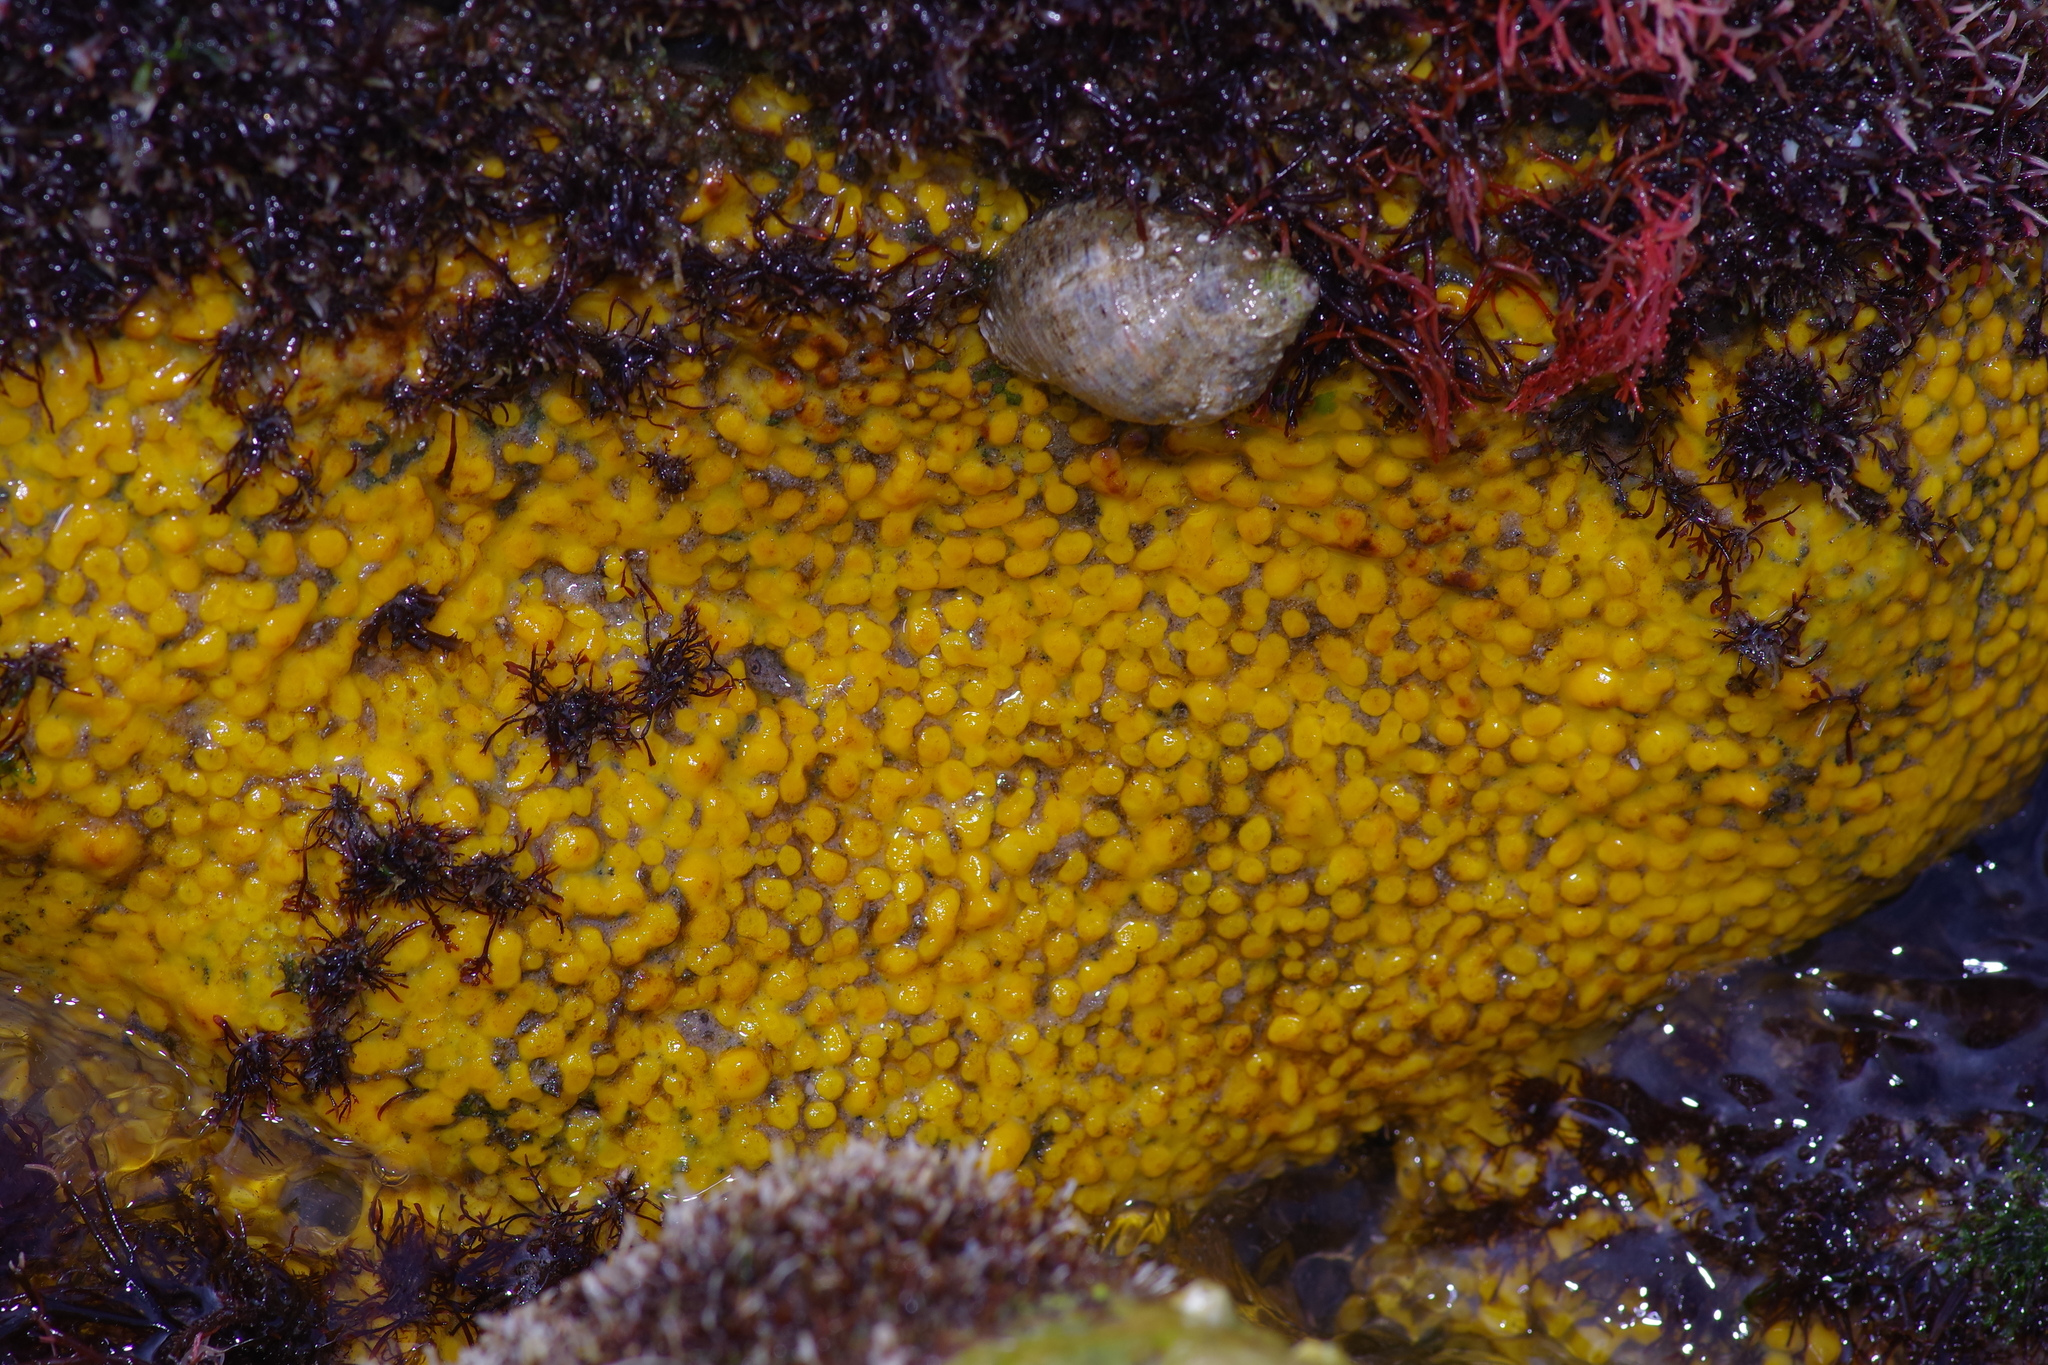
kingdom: Animalia
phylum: Porifera
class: Demospongiae
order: Clionaida
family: Clionaidae
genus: Cliona
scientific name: Cliona celata
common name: Boring sponge
